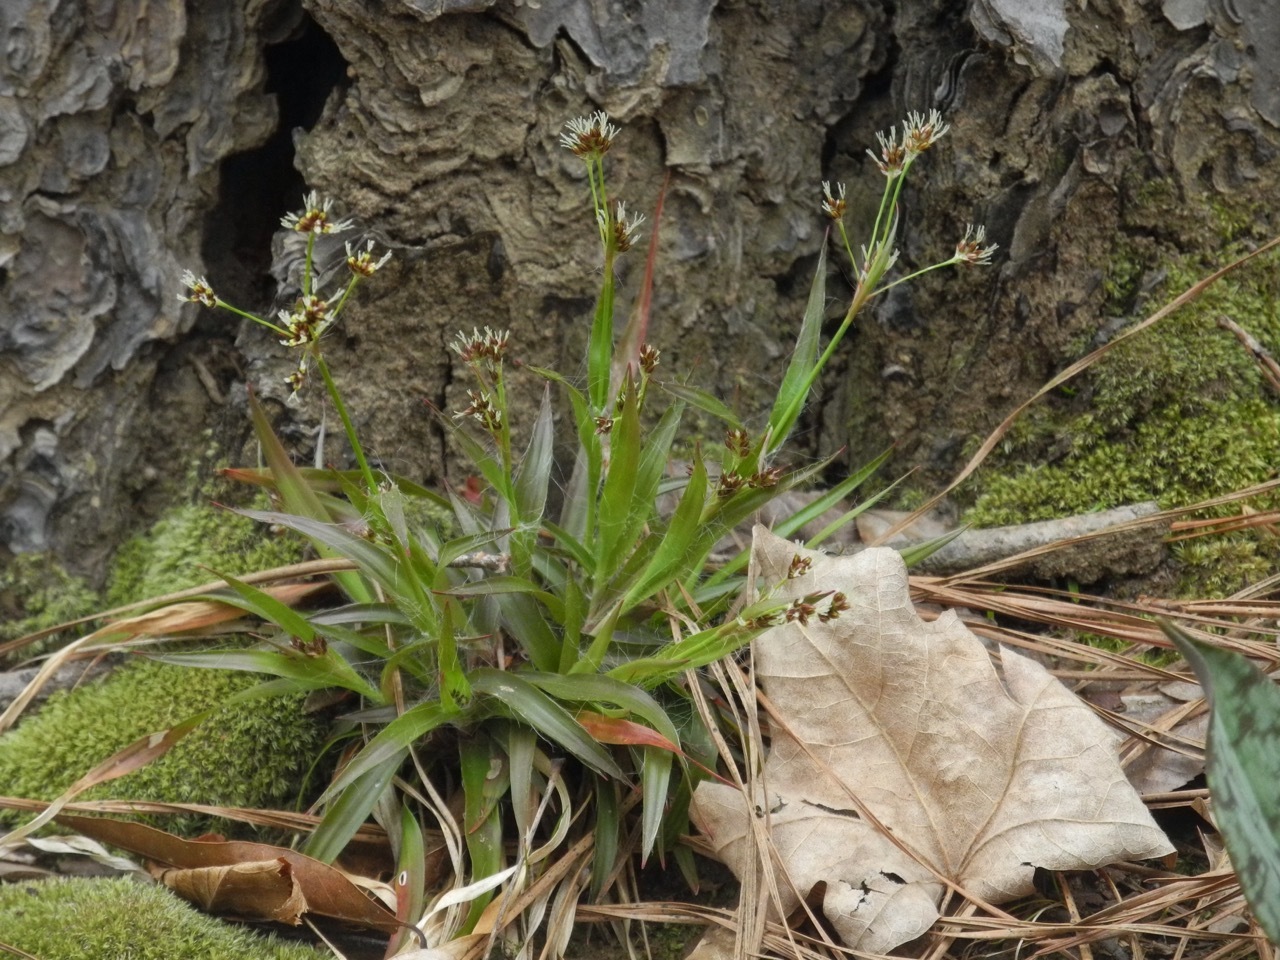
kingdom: Plantae
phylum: Tracheophyta
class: Liliopsida
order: Poales
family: Juncaceae
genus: Luzula
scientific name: Luzula echinata
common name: Hedgehog woodrush
